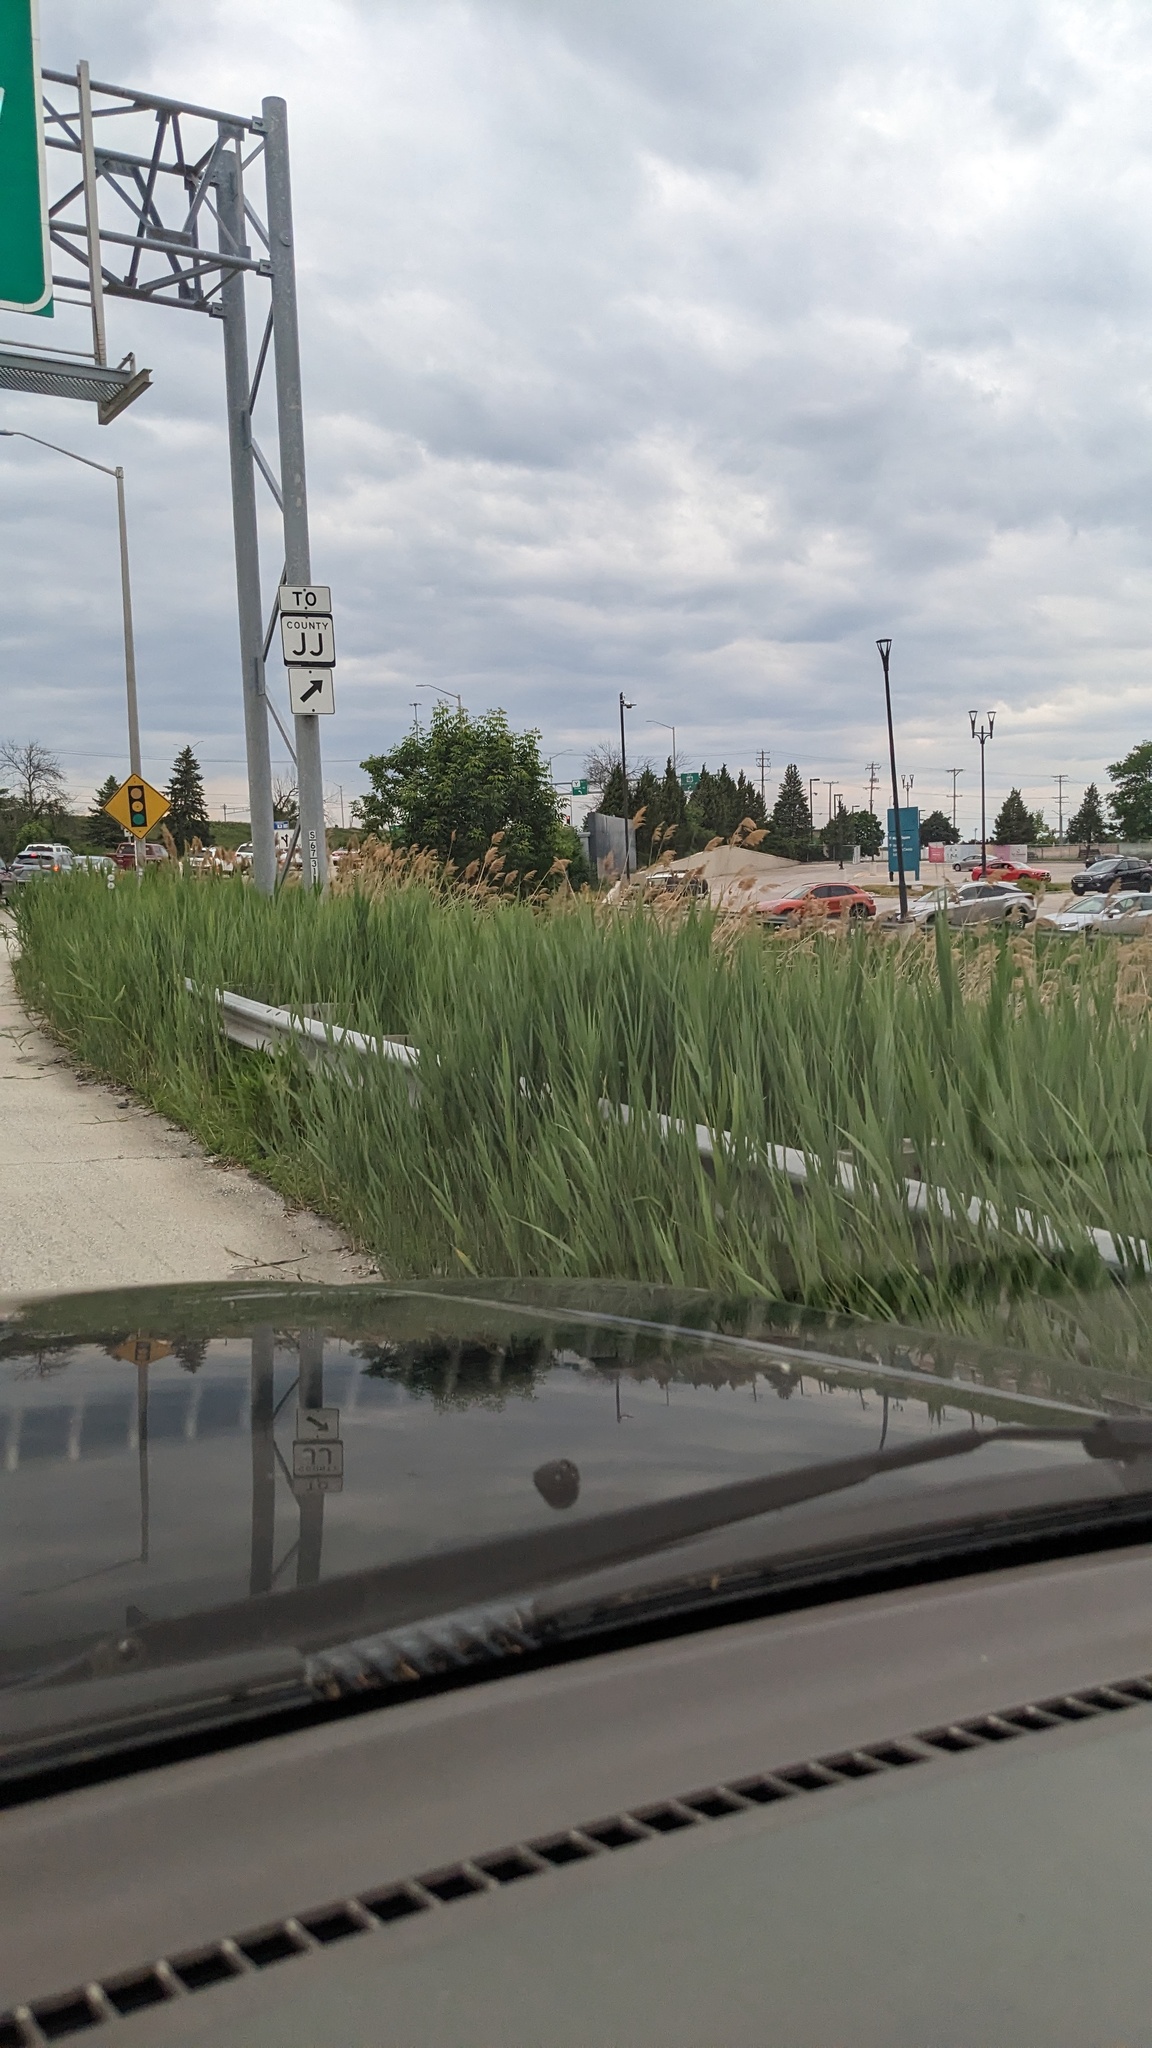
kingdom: Plantae
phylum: Tracheophyta
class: Liliopsida
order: Poales
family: Poaceae
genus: Phragmites
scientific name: Phragmites australis
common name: Common reed
